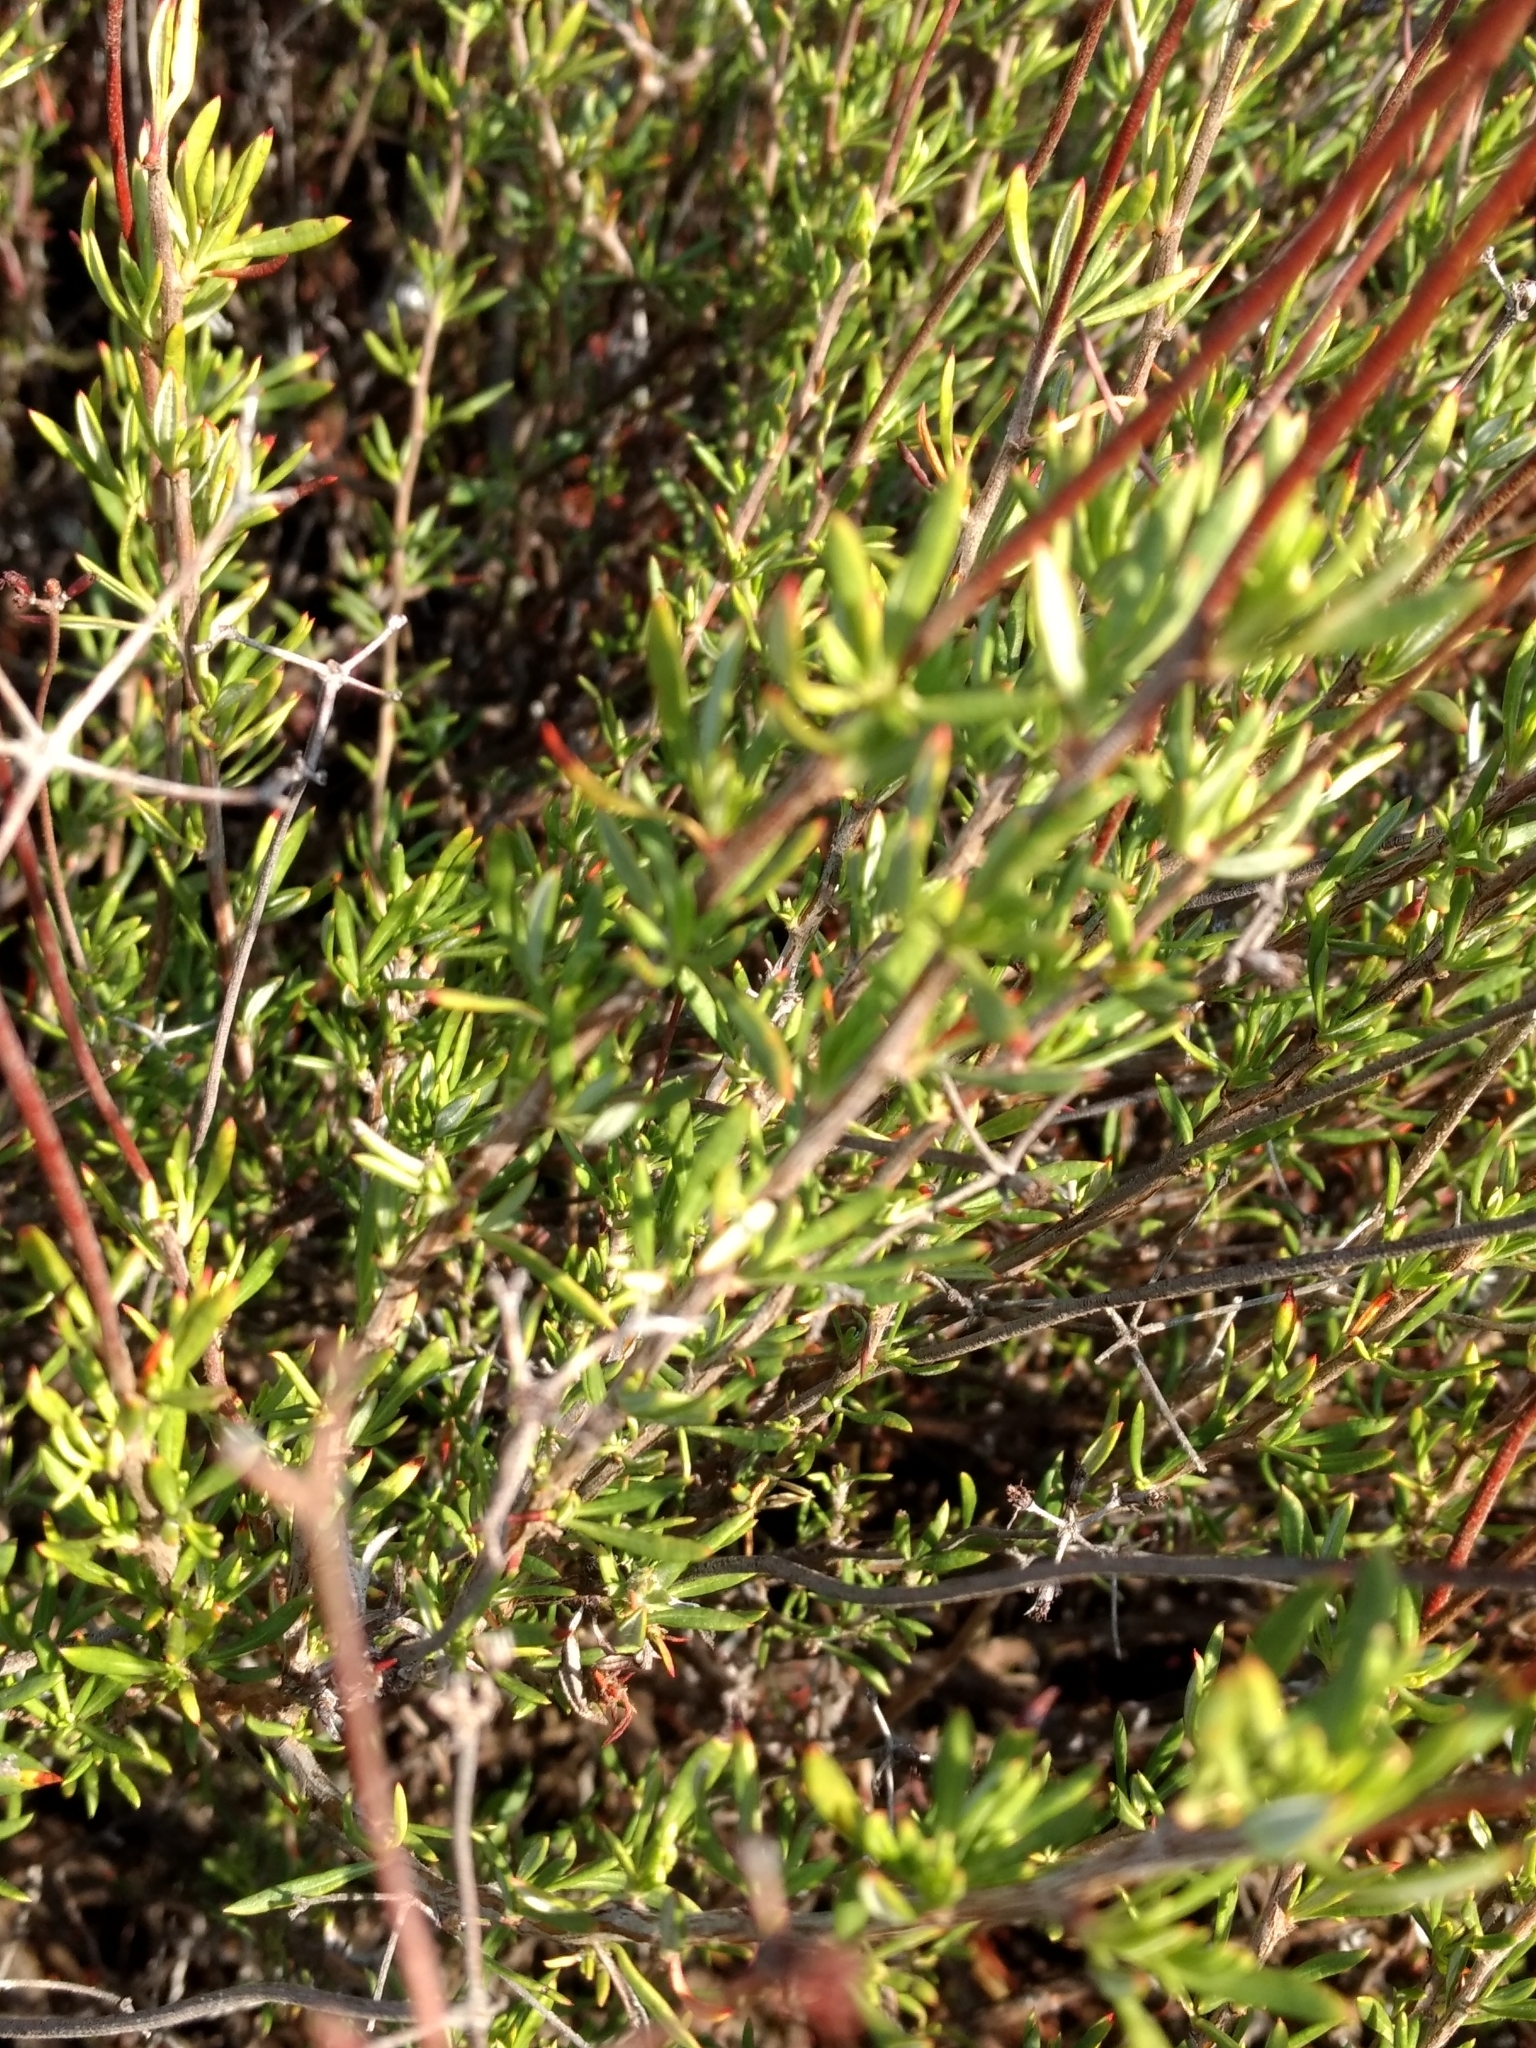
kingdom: Plantae
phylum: Tracheophyta
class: Magnoliopsida
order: Caryophyllales
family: Polygonaceae
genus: Eriogonum
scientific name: Eriogonum fasciculatum
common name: California wild buckwheat
